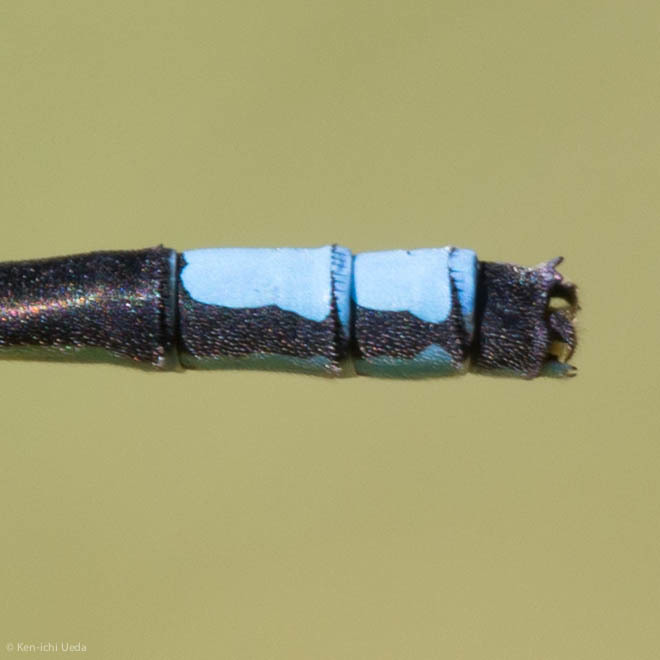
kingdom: Animalia
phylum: Arthropoda
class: Insecta
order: Odonata
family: Coenagrionidae
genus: Ischnura
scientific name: Ischnura perparva
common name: Western forktail
